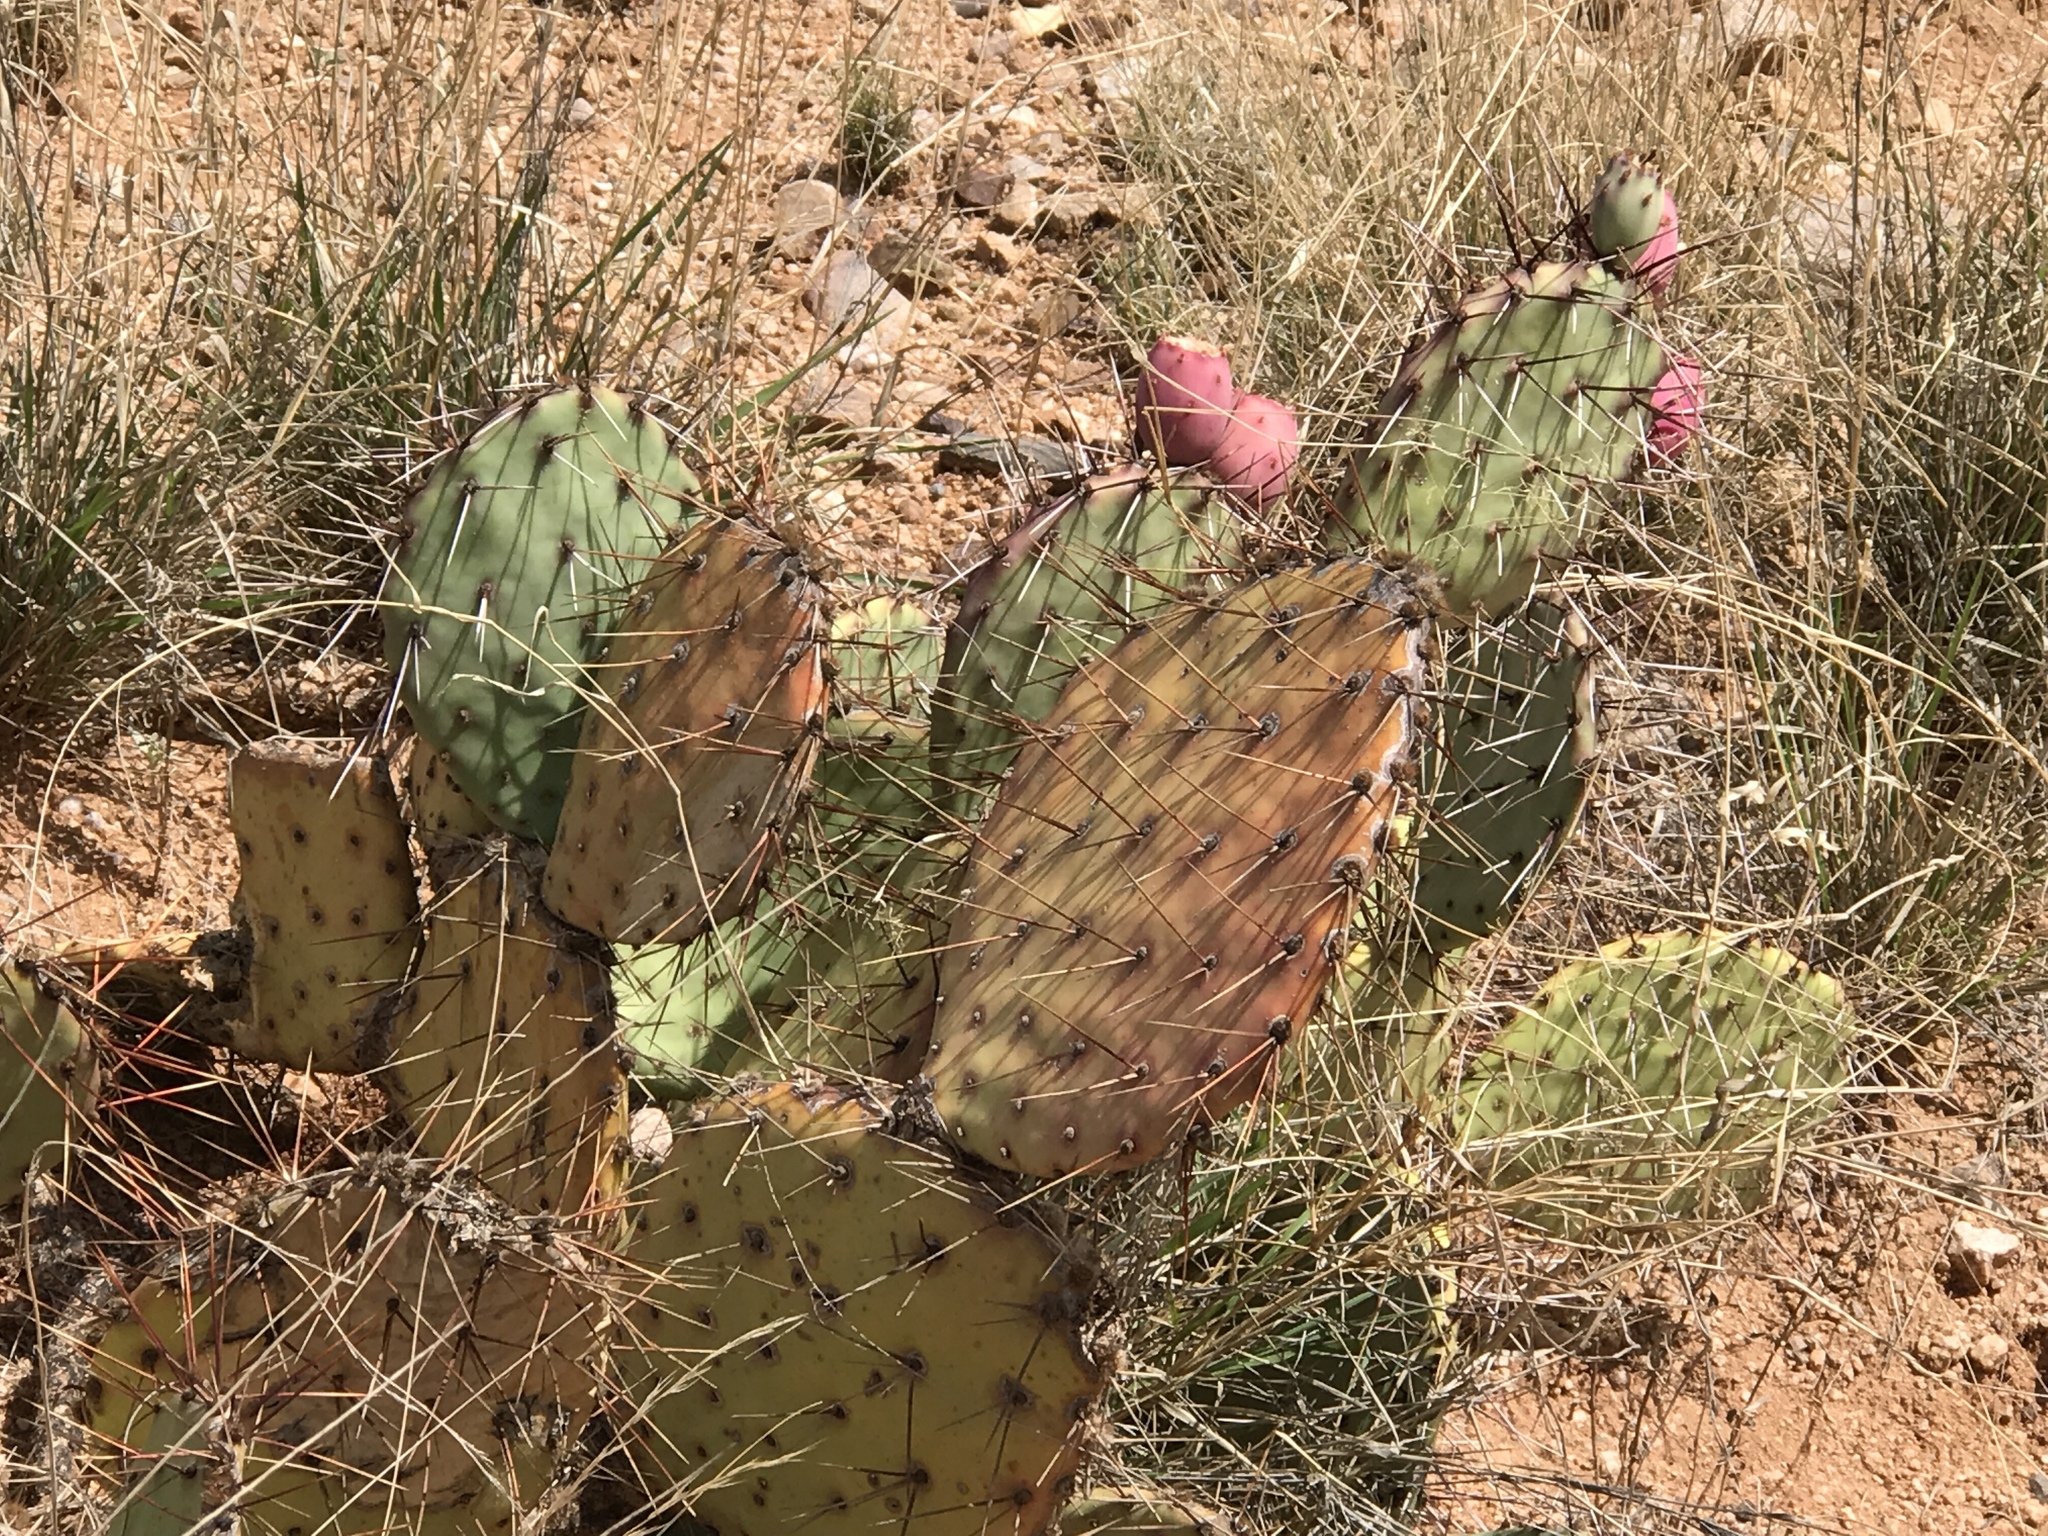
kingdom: Plantae
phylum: Tracheophyta
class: Magnoliopsida
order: Caryophyllales
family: Cactaceae
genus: Opuntia
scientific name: Opuntia phaeacantha
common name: New mexico prickly-pear
